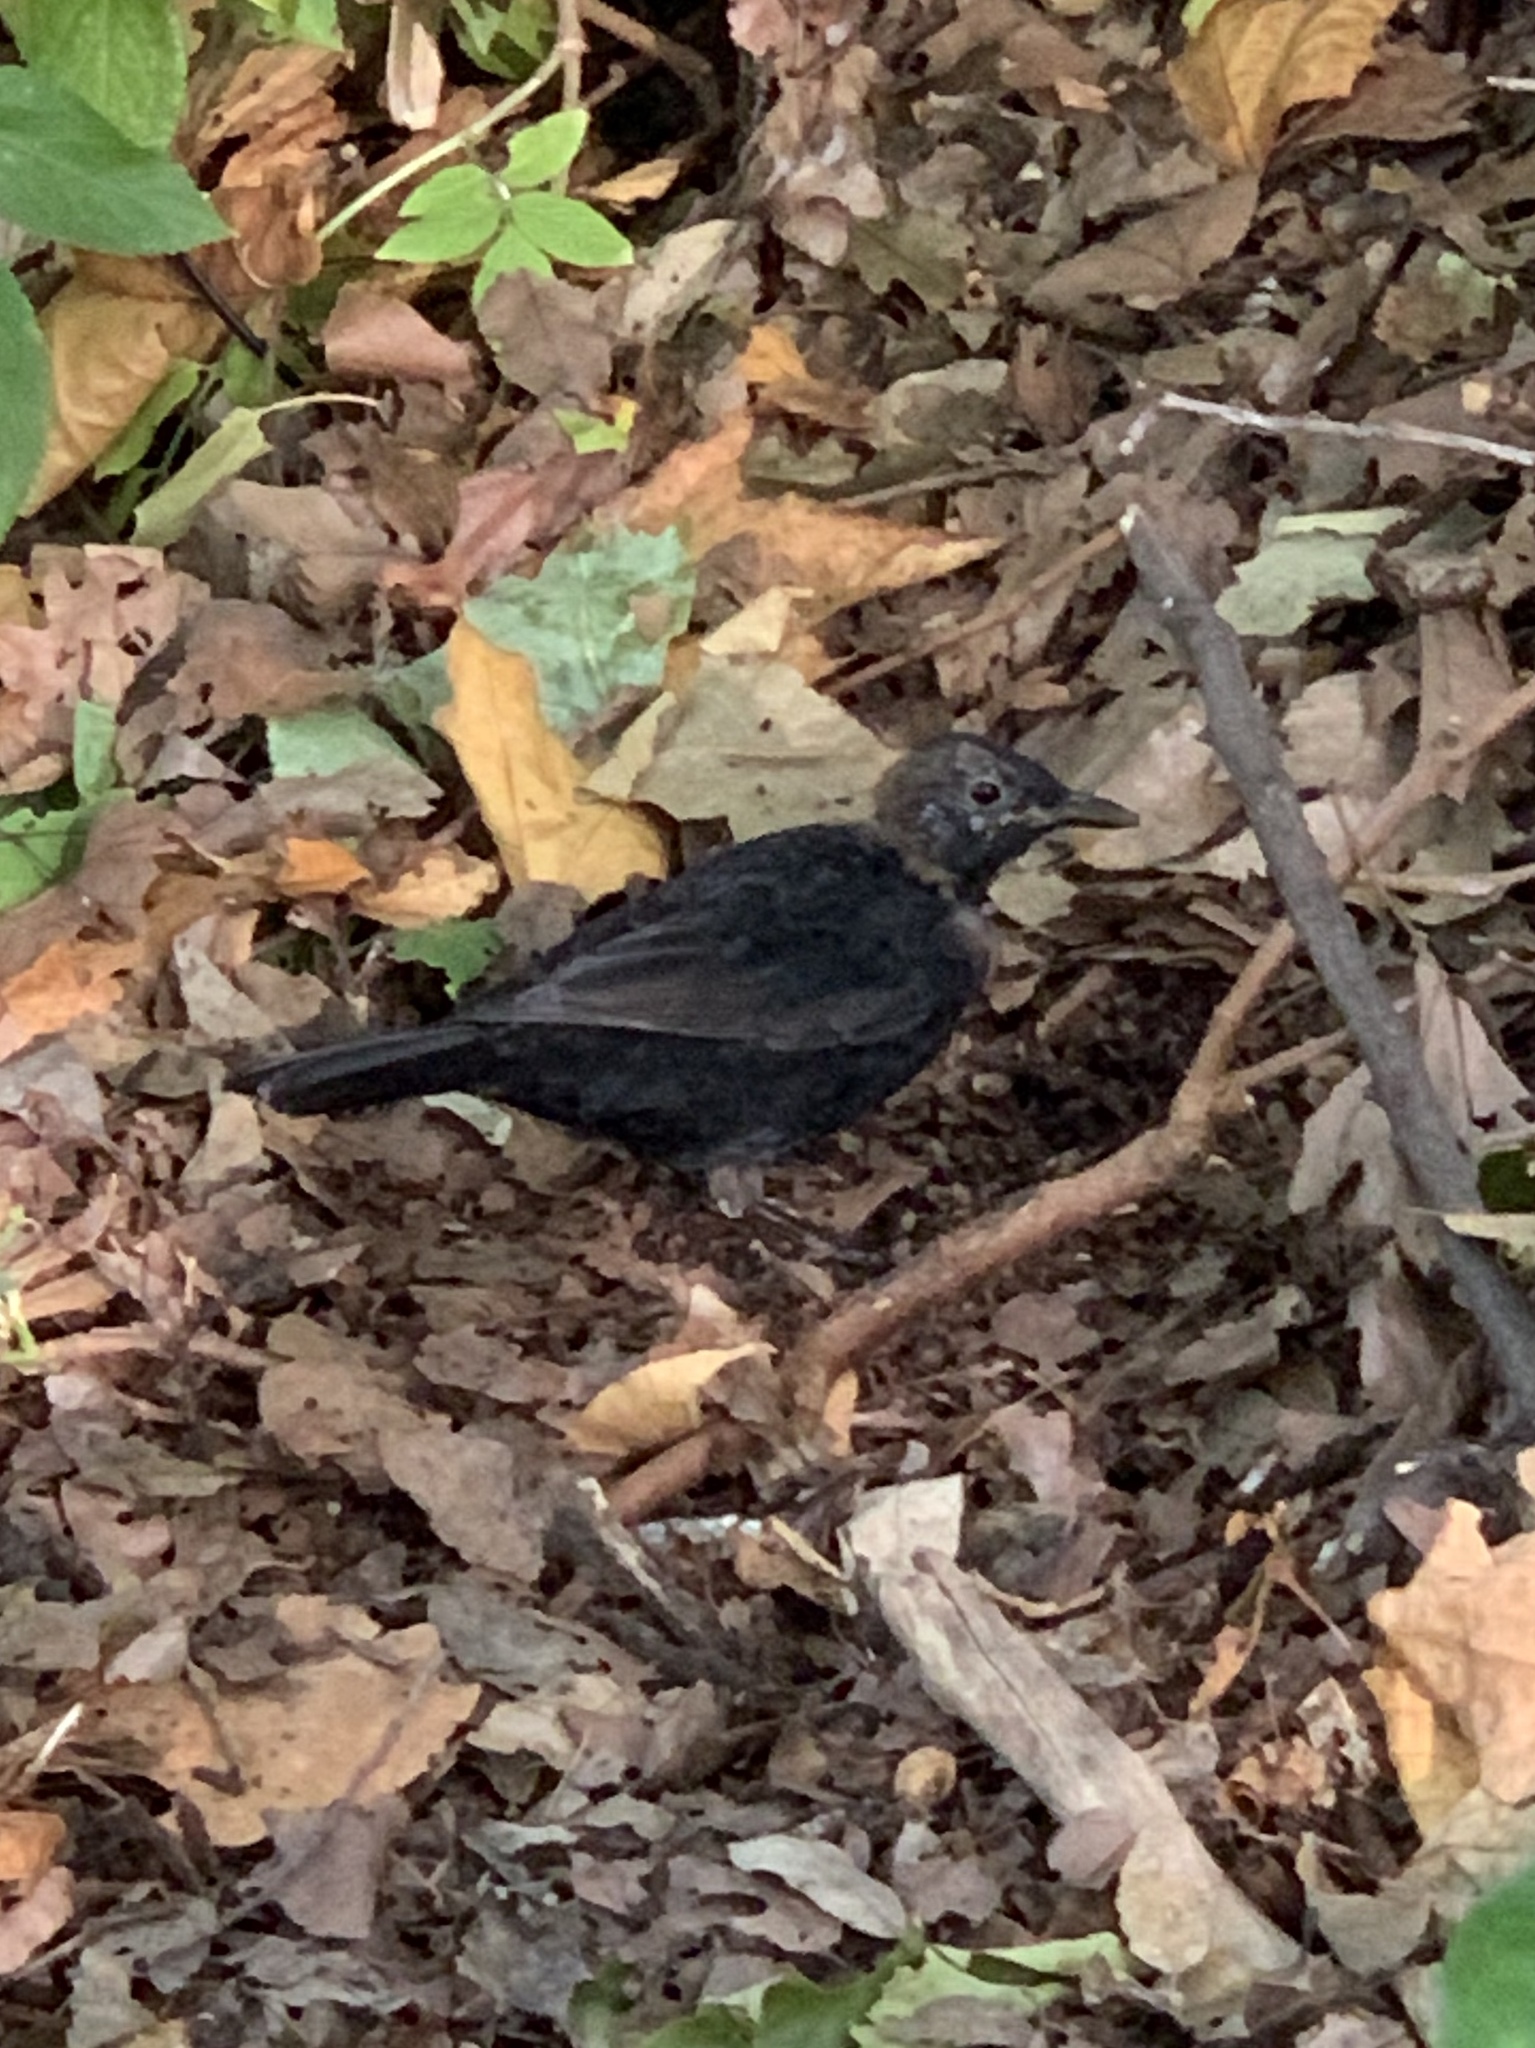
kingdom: Animalia
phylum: Chordata
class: Aves
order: Passeriformes
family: Turdidae
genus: Turdus
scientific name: Turdus merula
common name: Common blackbird
